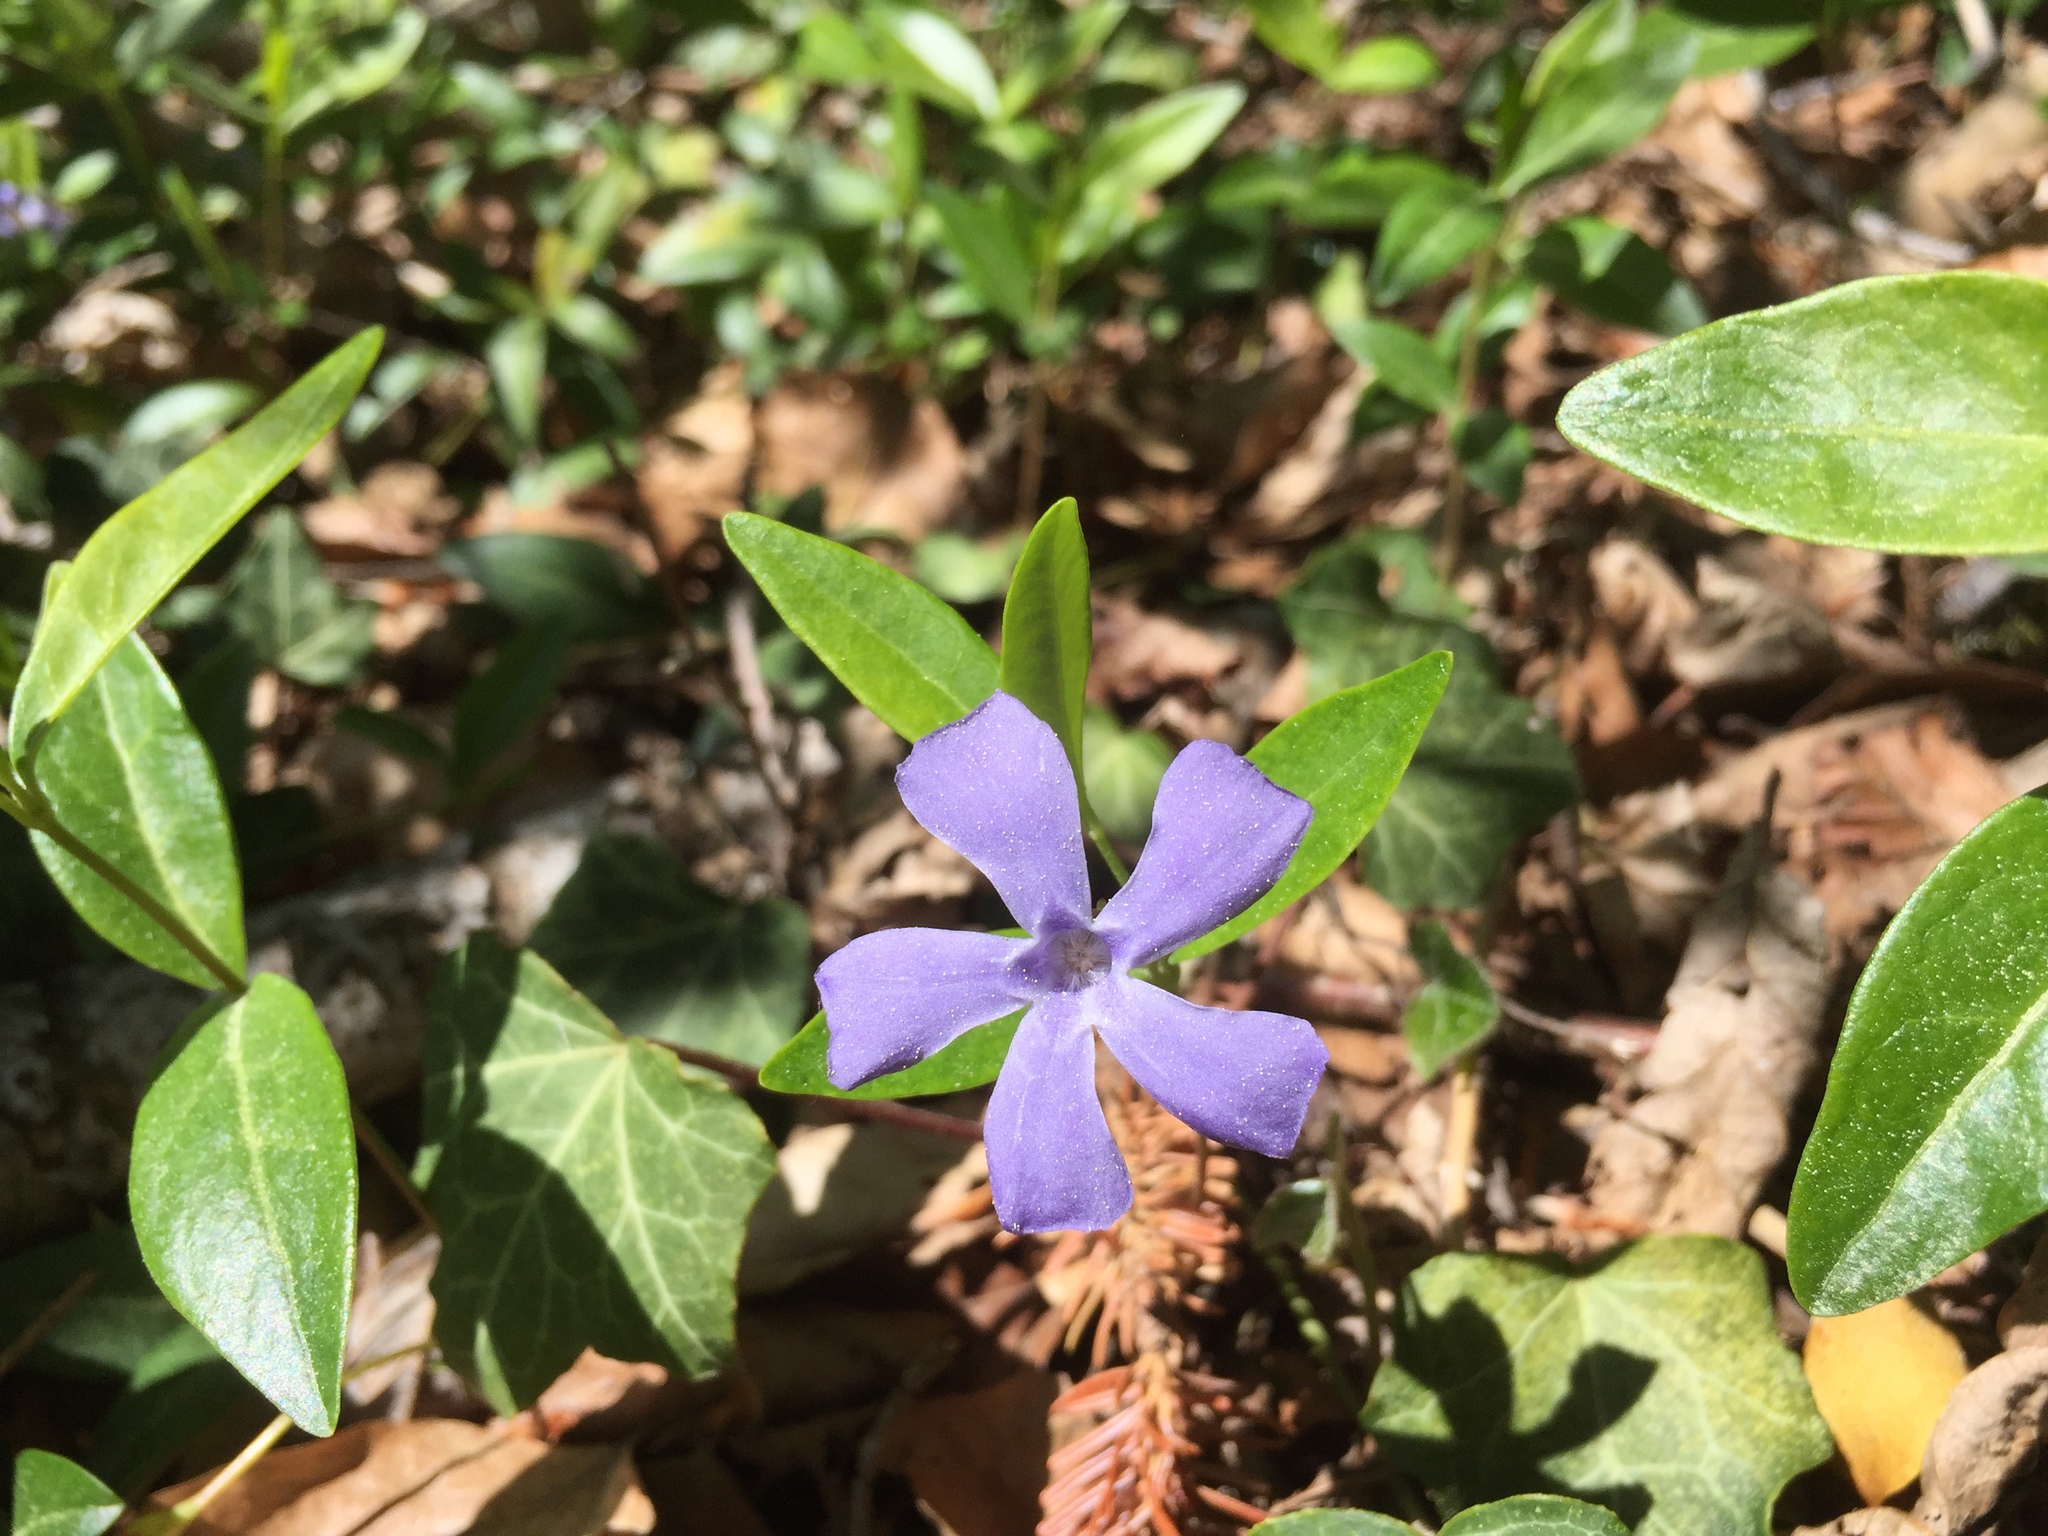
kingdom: Plantae
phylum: Tracheophyta
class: Magnoliopsida
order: Gentianales
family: Apocynaceae
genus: Vinca
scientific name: Vinca minor
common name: Lesser periwinkle
